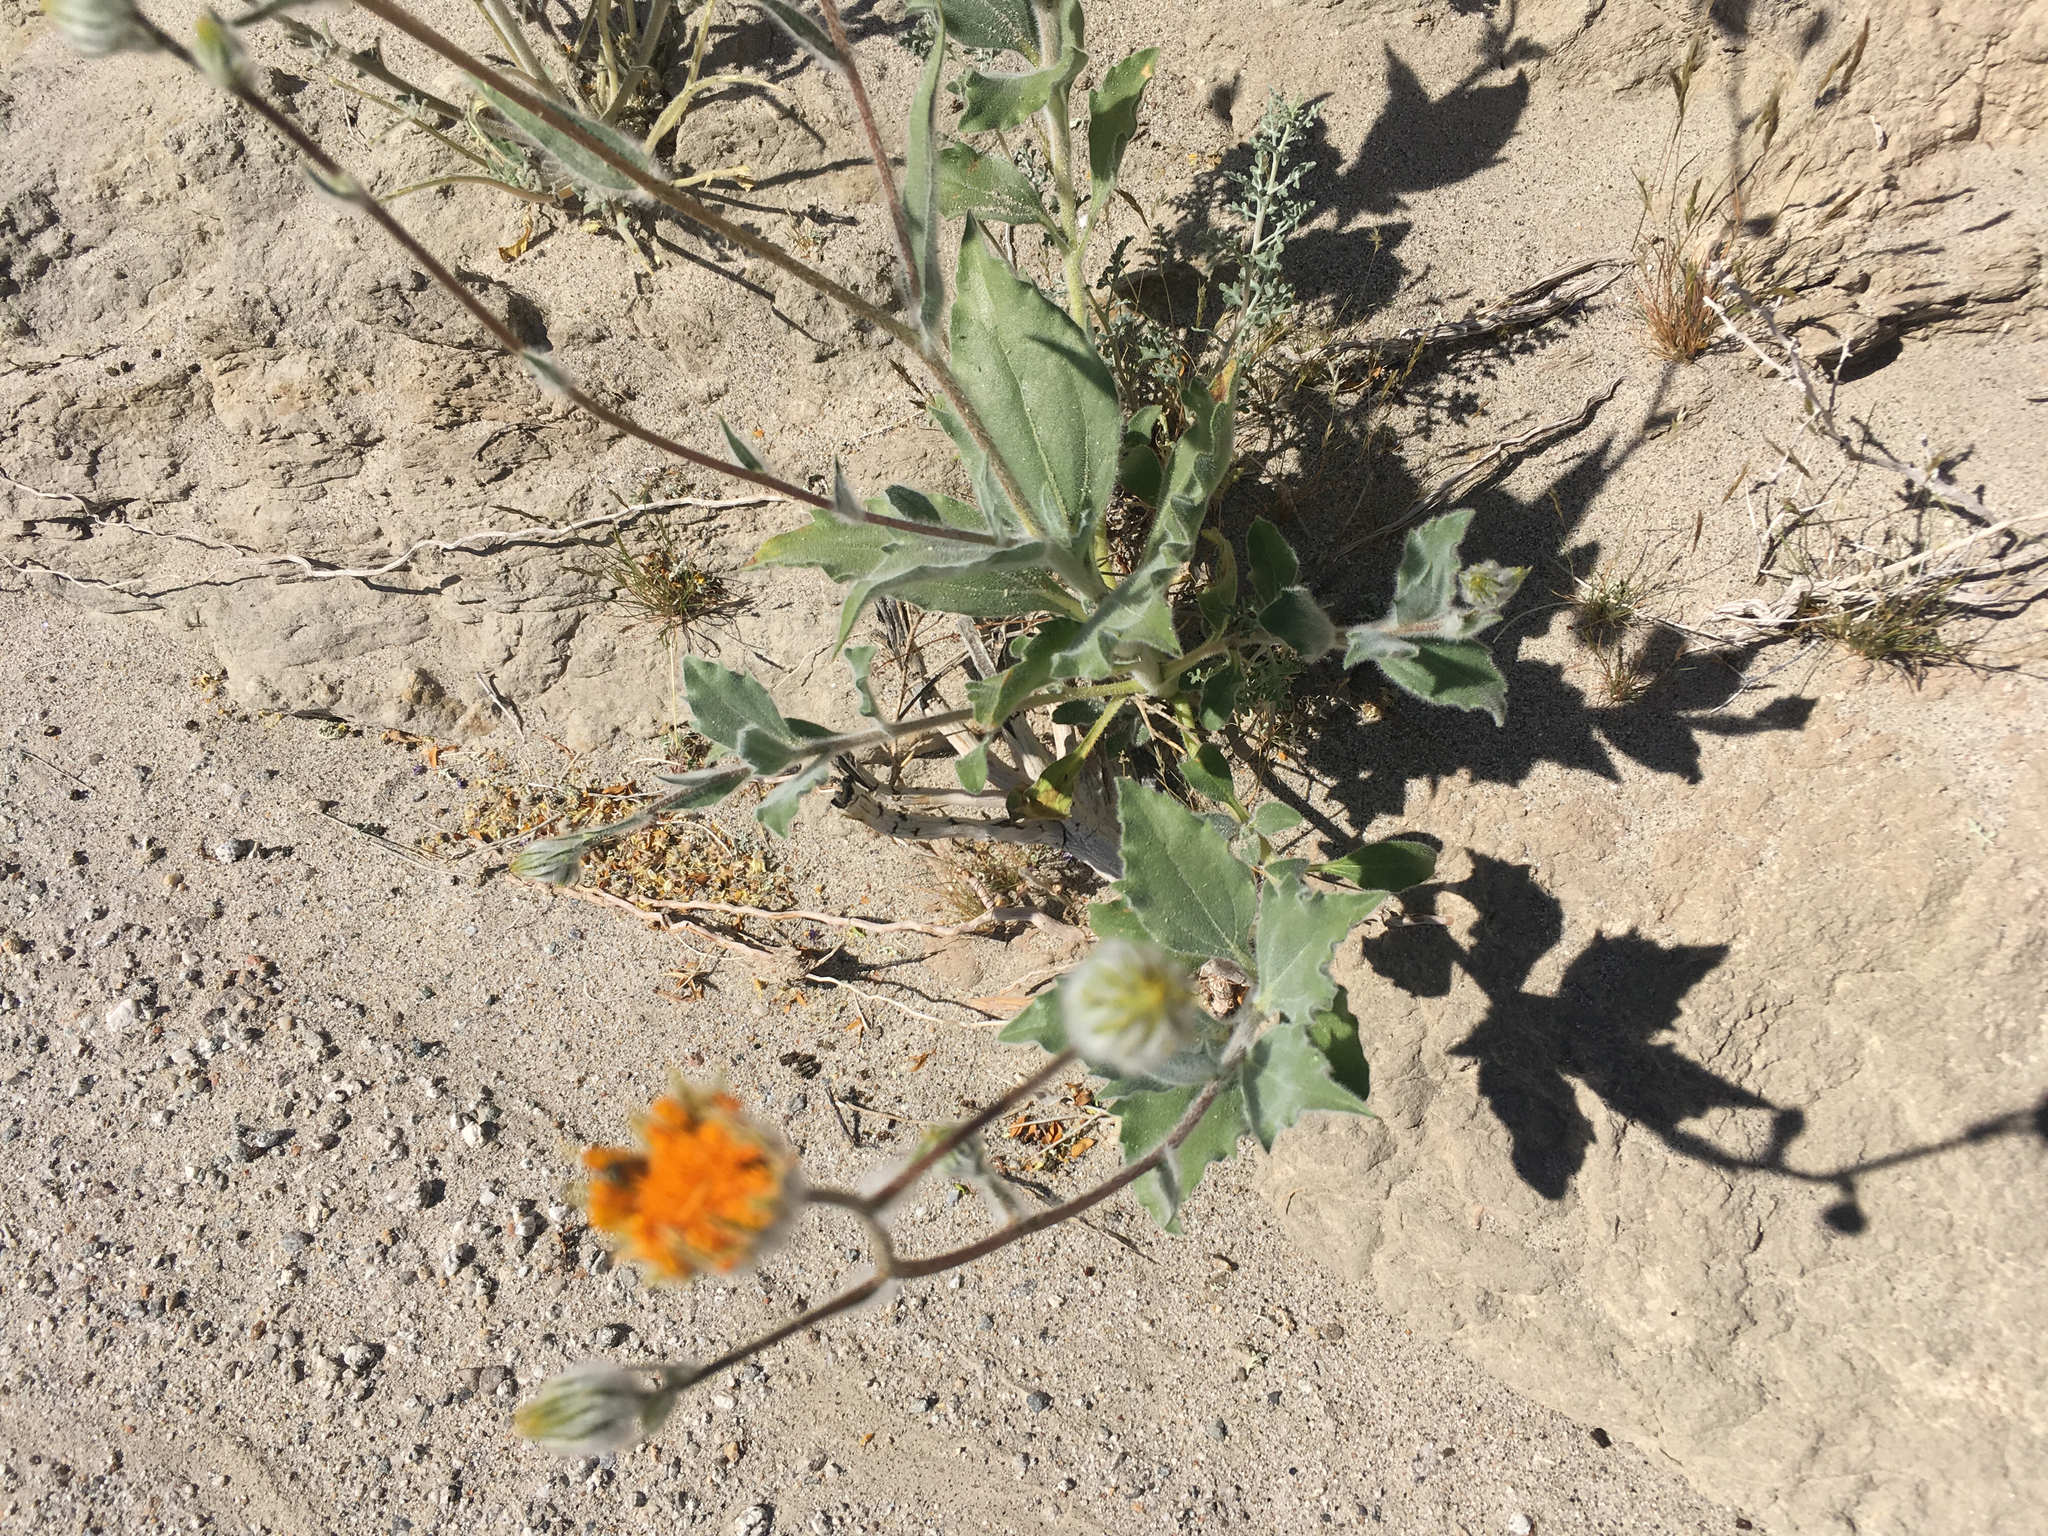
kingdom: Plantae
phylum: Tracheophyta
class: Magnoliopsida
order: Asterales
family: Asteraceae
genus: Geraea
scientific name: Geraea canescens
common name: Desert-gold
